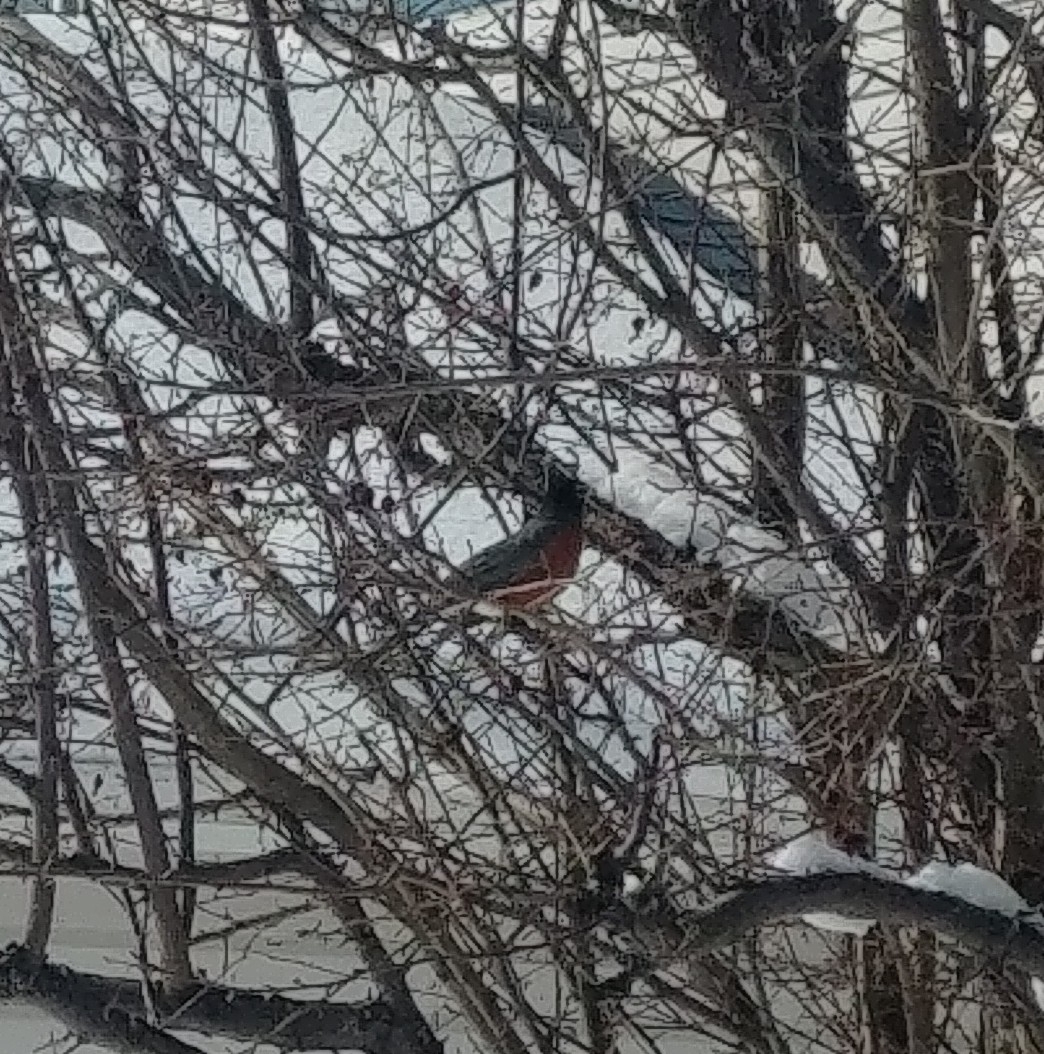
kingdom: Animalia
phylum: Chordata
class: Aves
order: Passeriformes
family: Turdidae
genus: Turdus
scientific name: Turdus migratorius
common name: American robin
